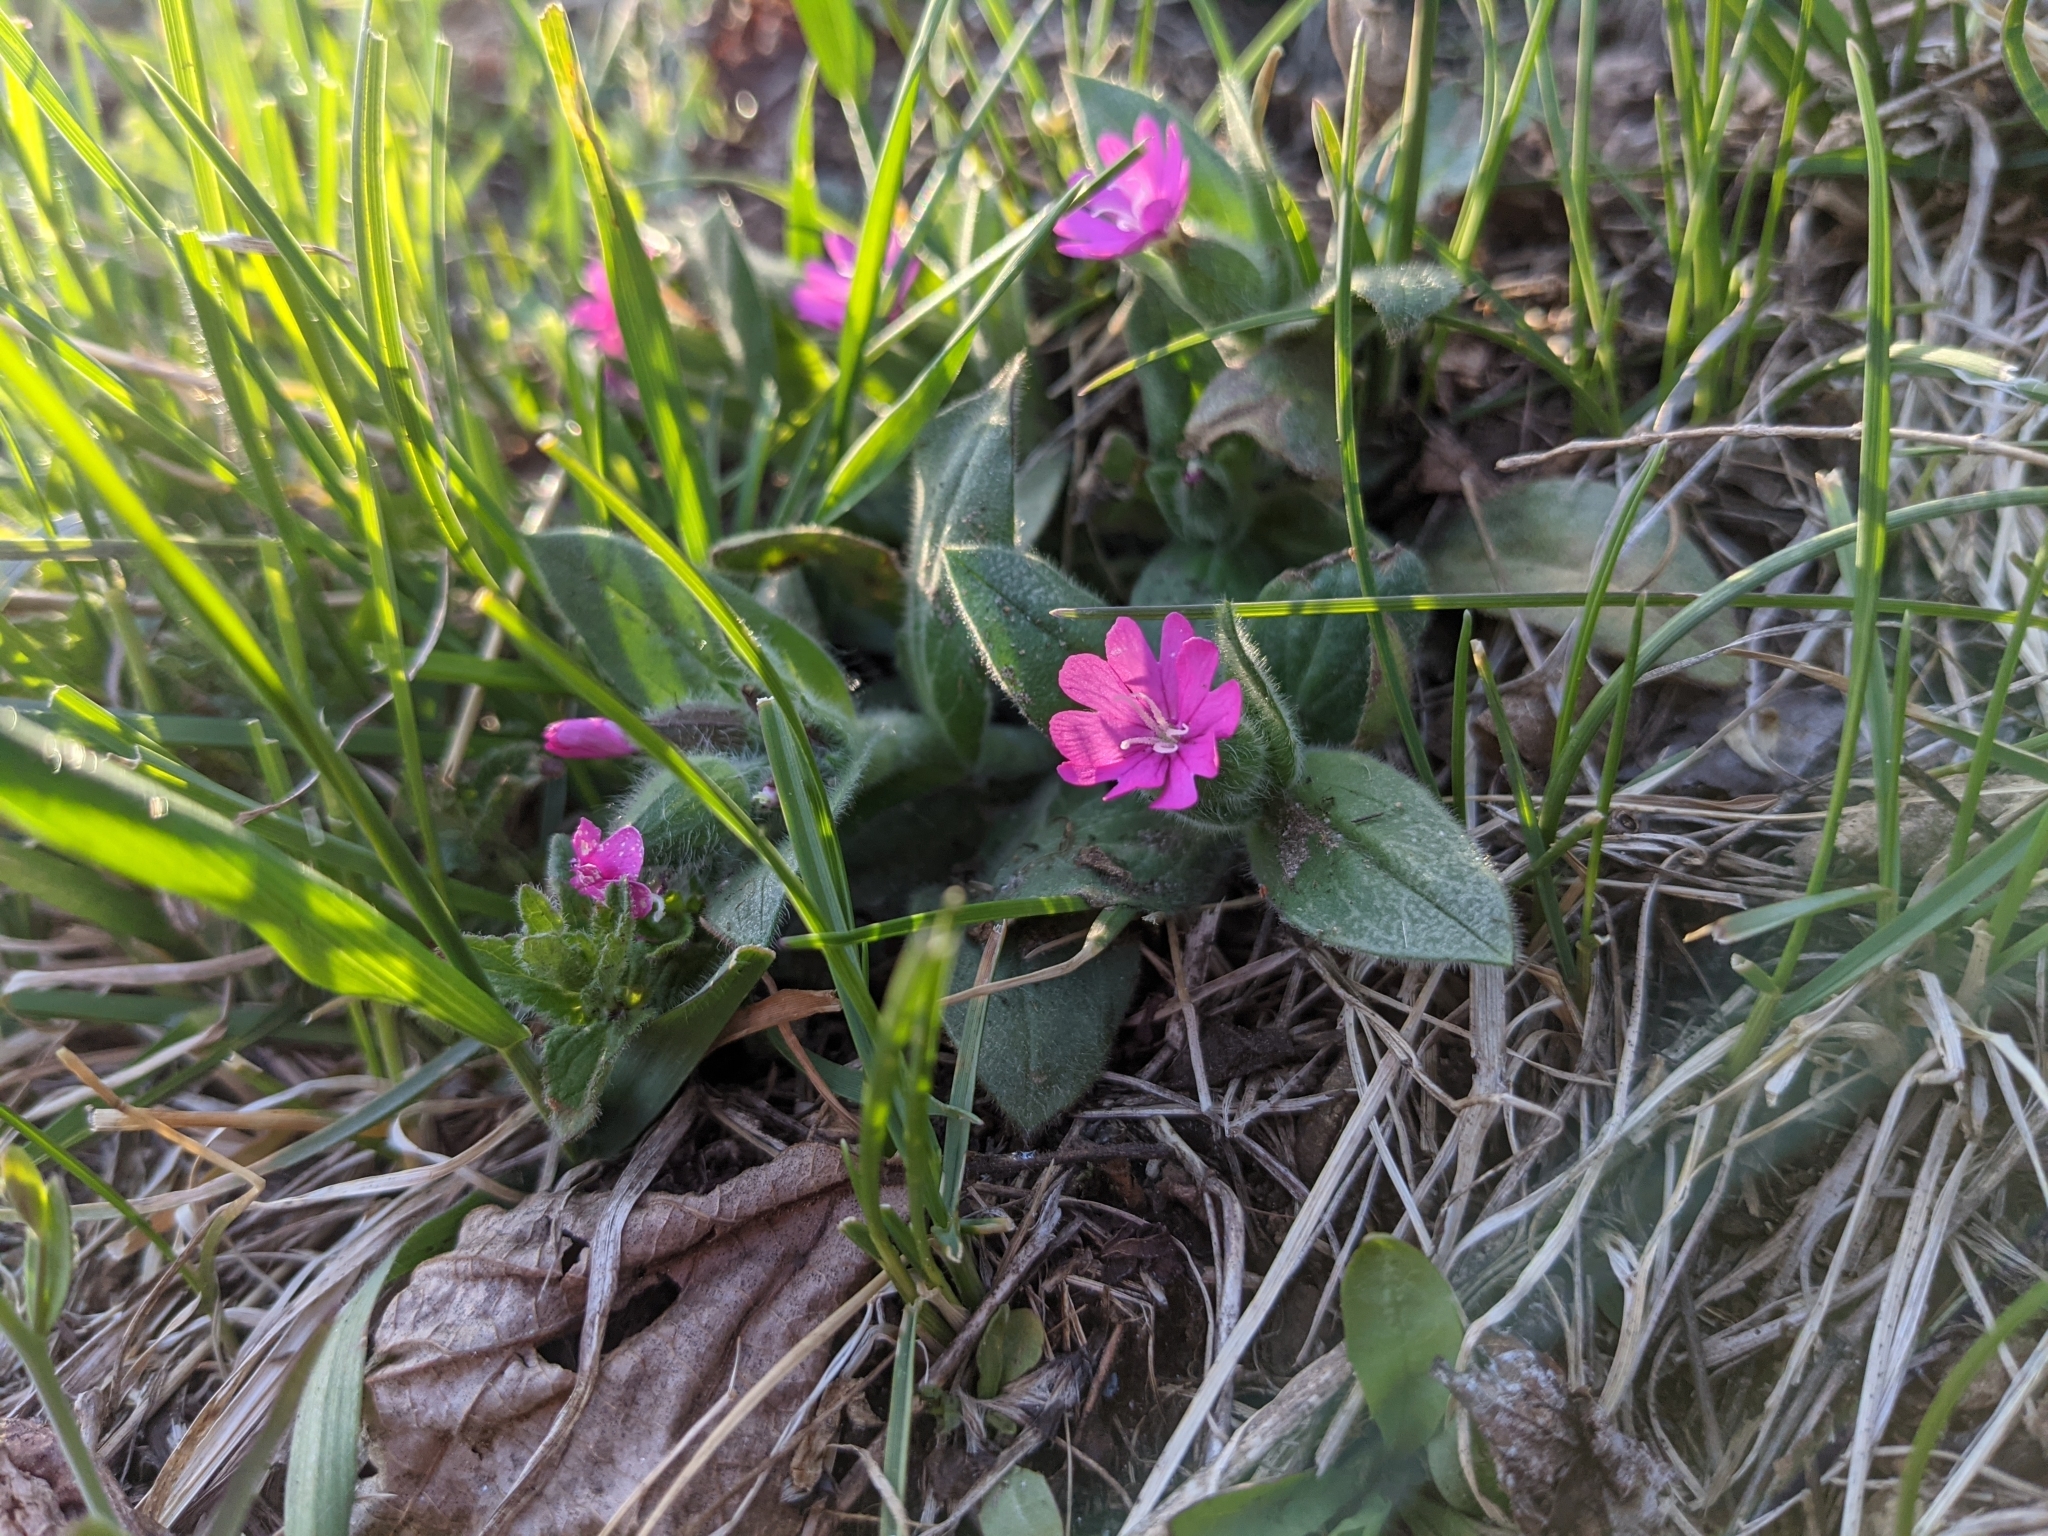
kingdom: Plantae
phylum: Tracheophyta
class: Magnoliopsida
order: Caryophyllales
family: Caryophyllaceae
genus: Silene
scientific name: Silene dioica
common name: Red campion
